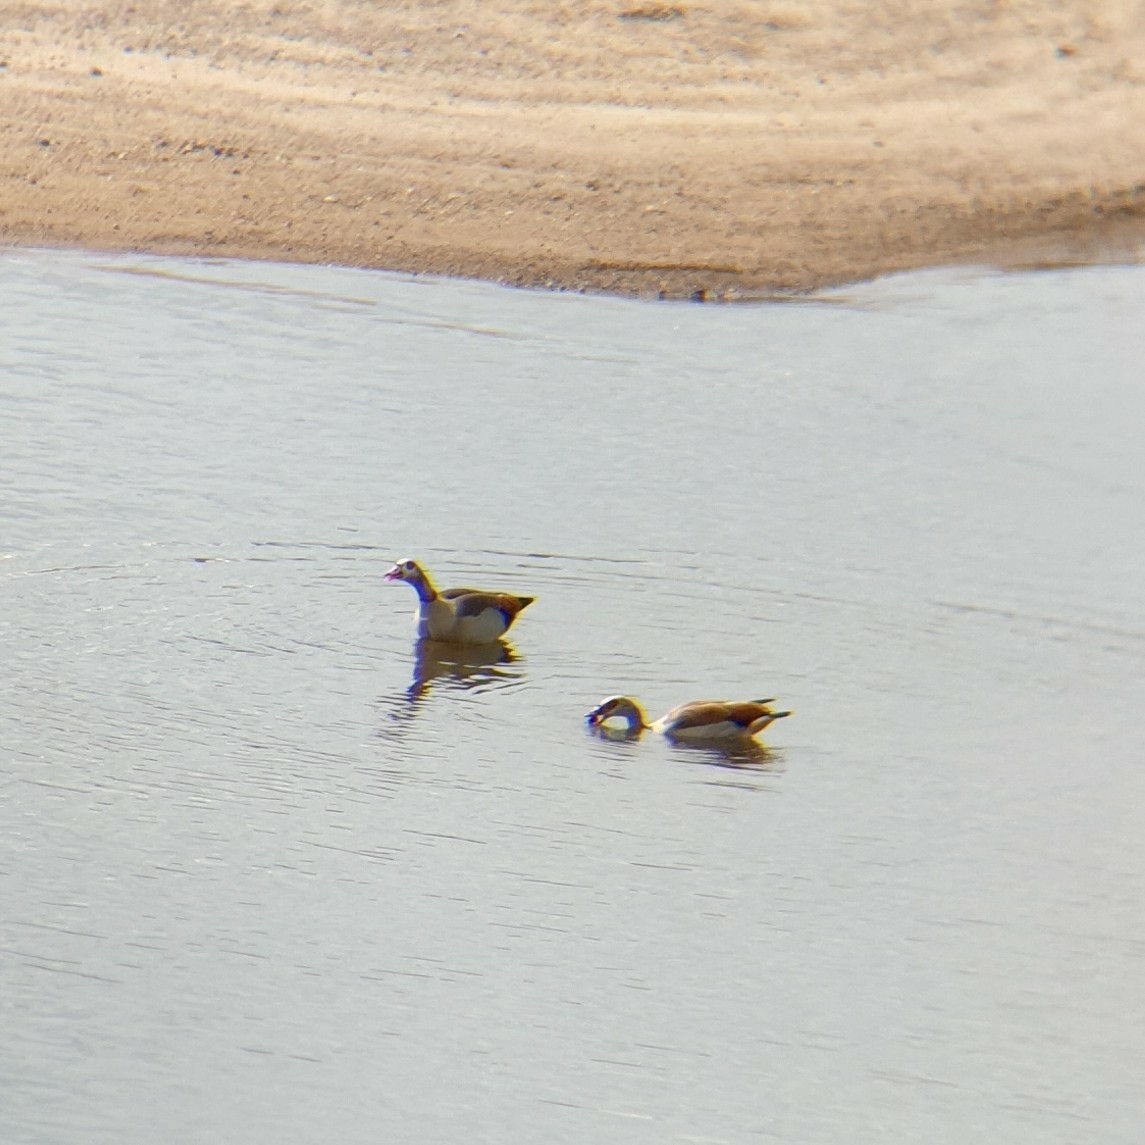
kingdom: Animalia
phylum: Chordata
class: Aves
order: Anseriformes
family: Anatidae
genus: Alopochen
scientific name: Alopochen aegyptiaca
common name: Egyptian goose
